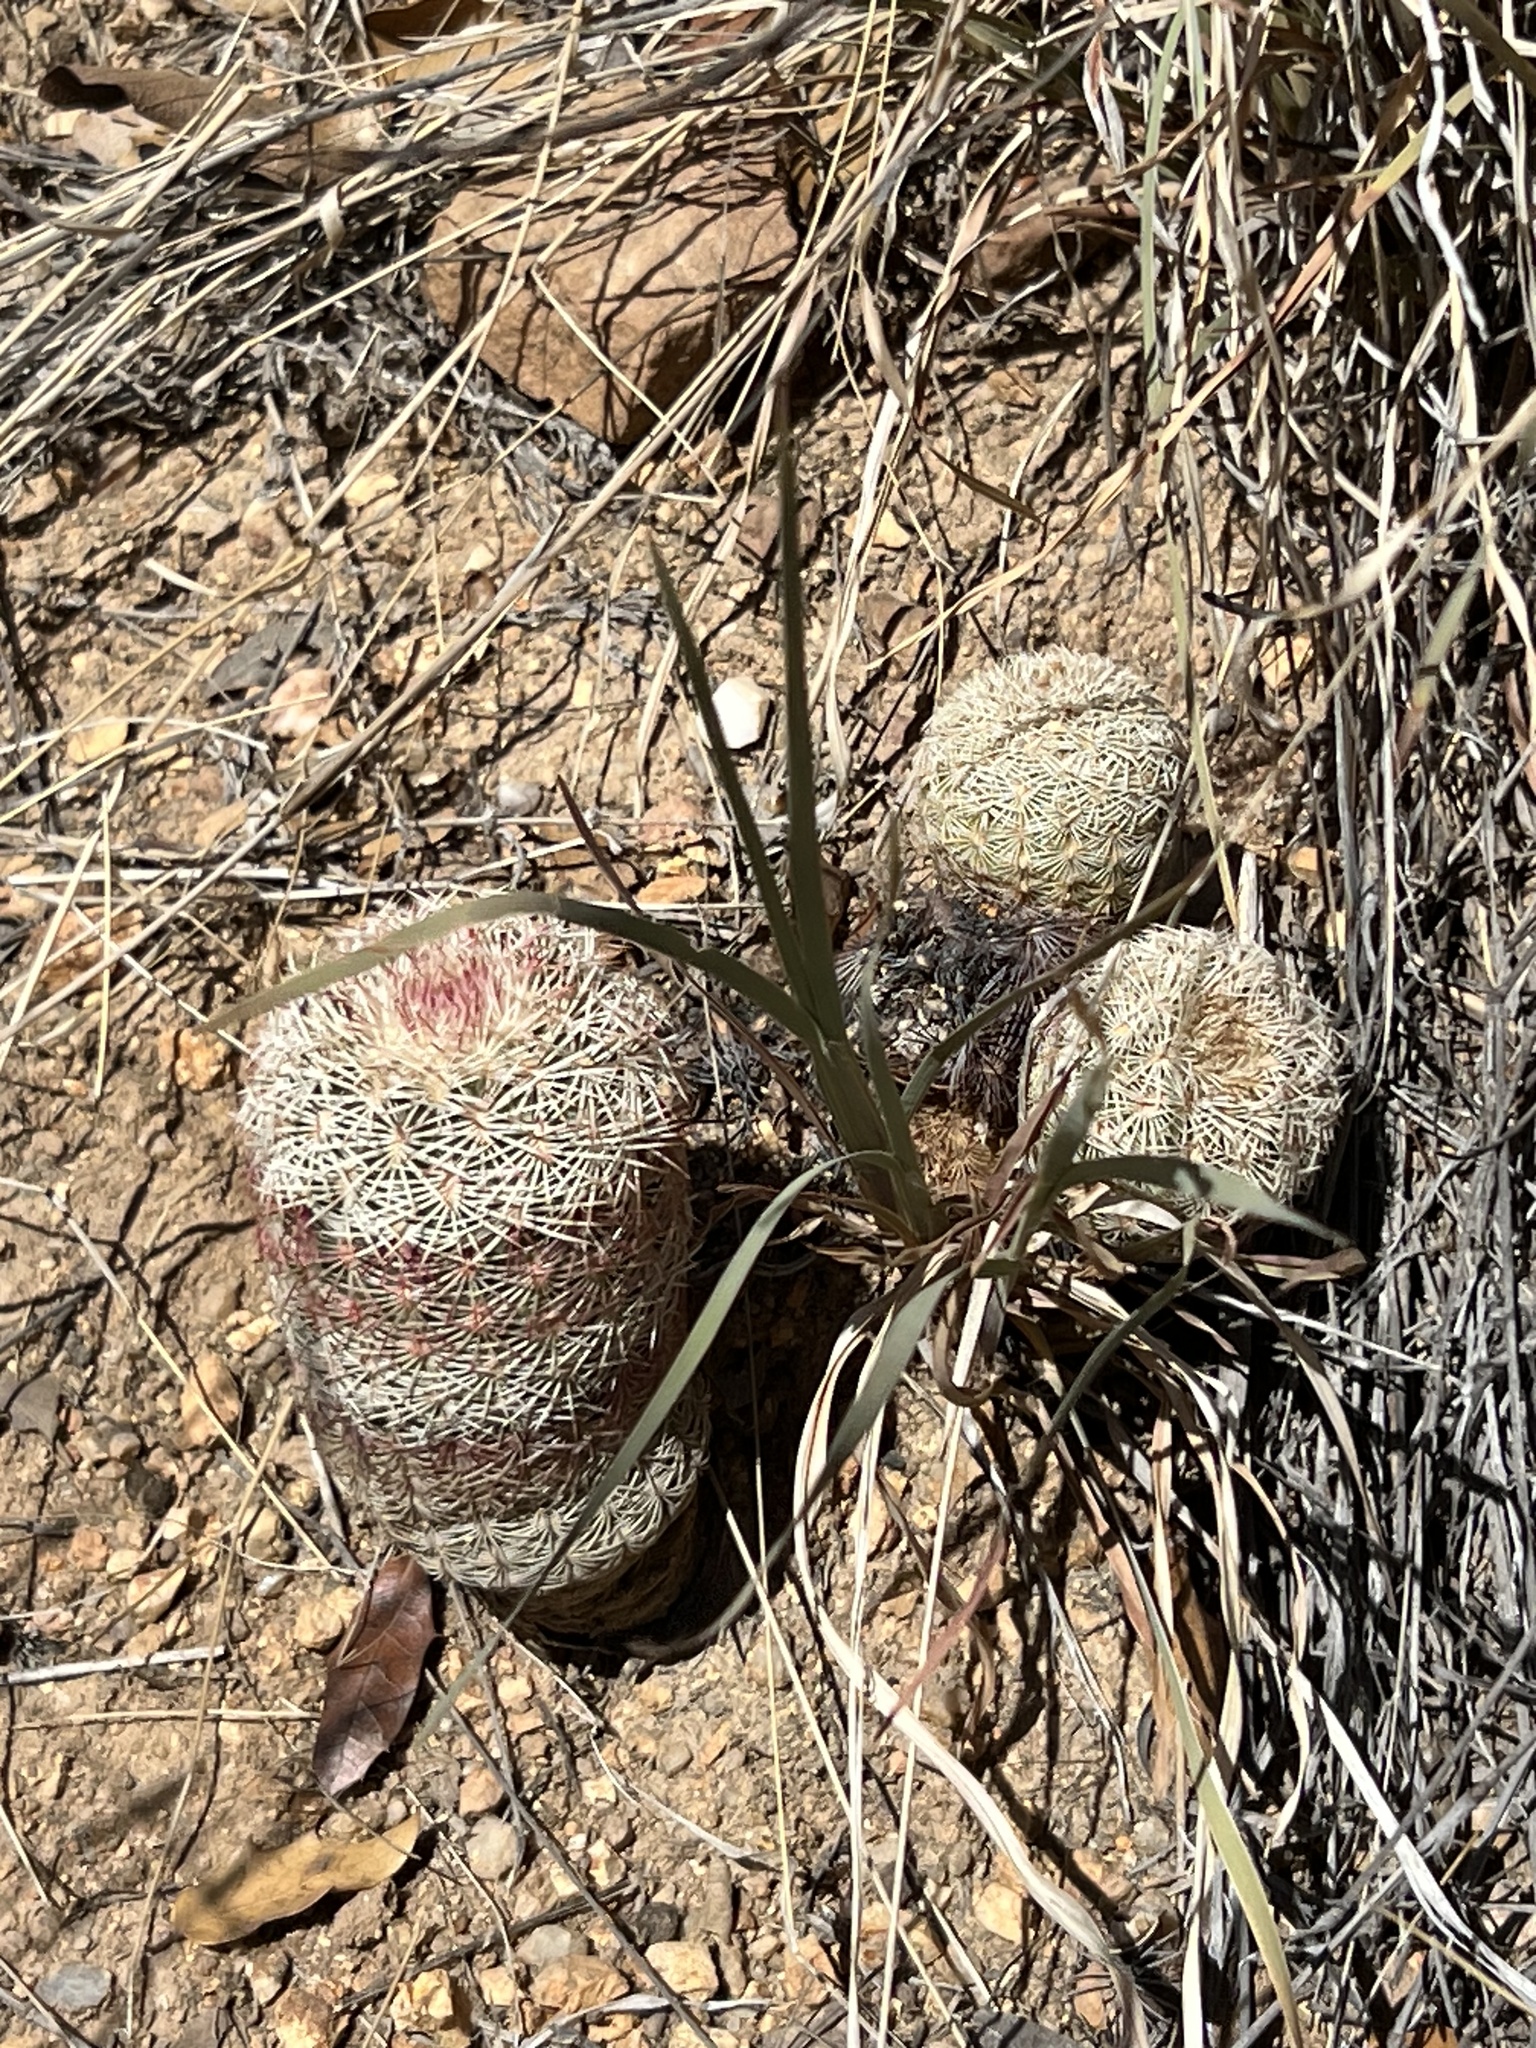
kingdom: Plantae
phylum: Tracheophyta
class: Magnoliopsida
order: Caryophyllales
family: Cactaceae
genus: Echinocereus
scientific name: Echinocereus rigidissimus
